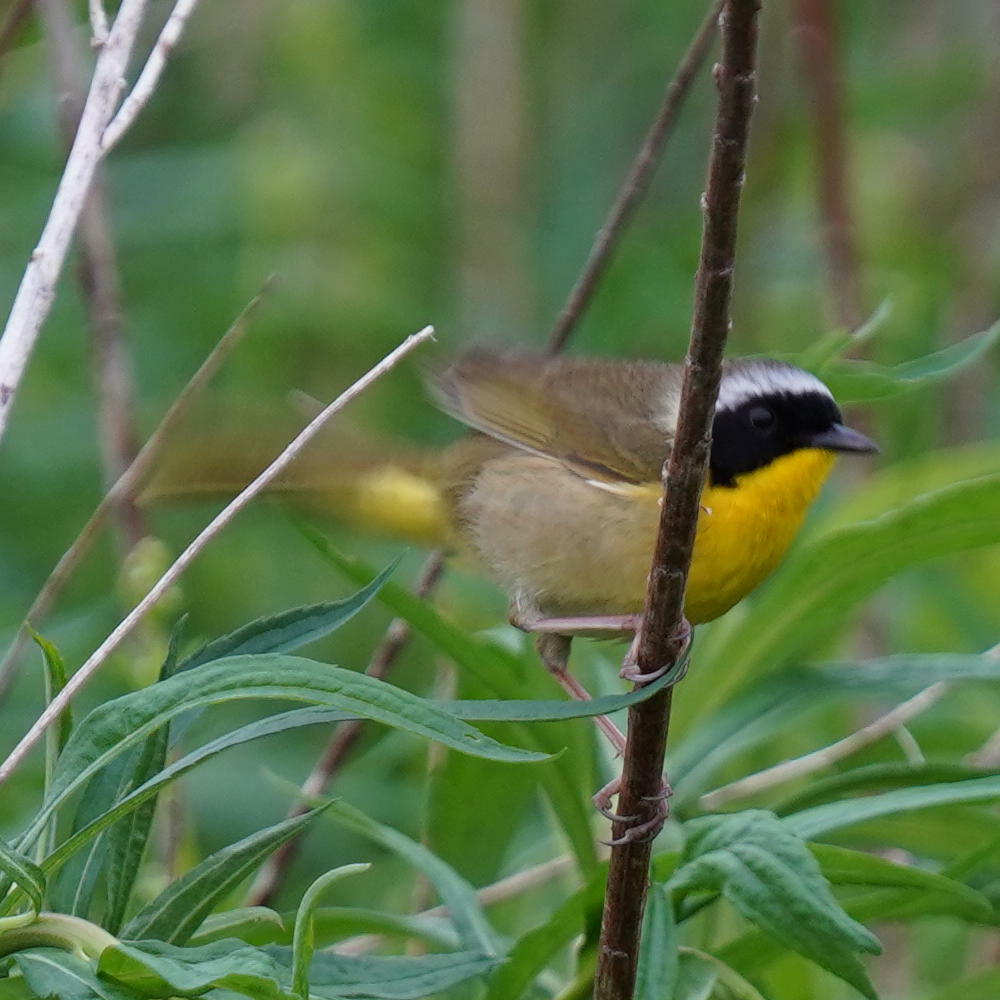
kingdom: Animalia
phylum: Chordata
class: Aves
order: Passeriformes
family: Parulidae
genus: Geothlypis
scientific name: Geothlypis trichas
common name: Common yellowthroat
